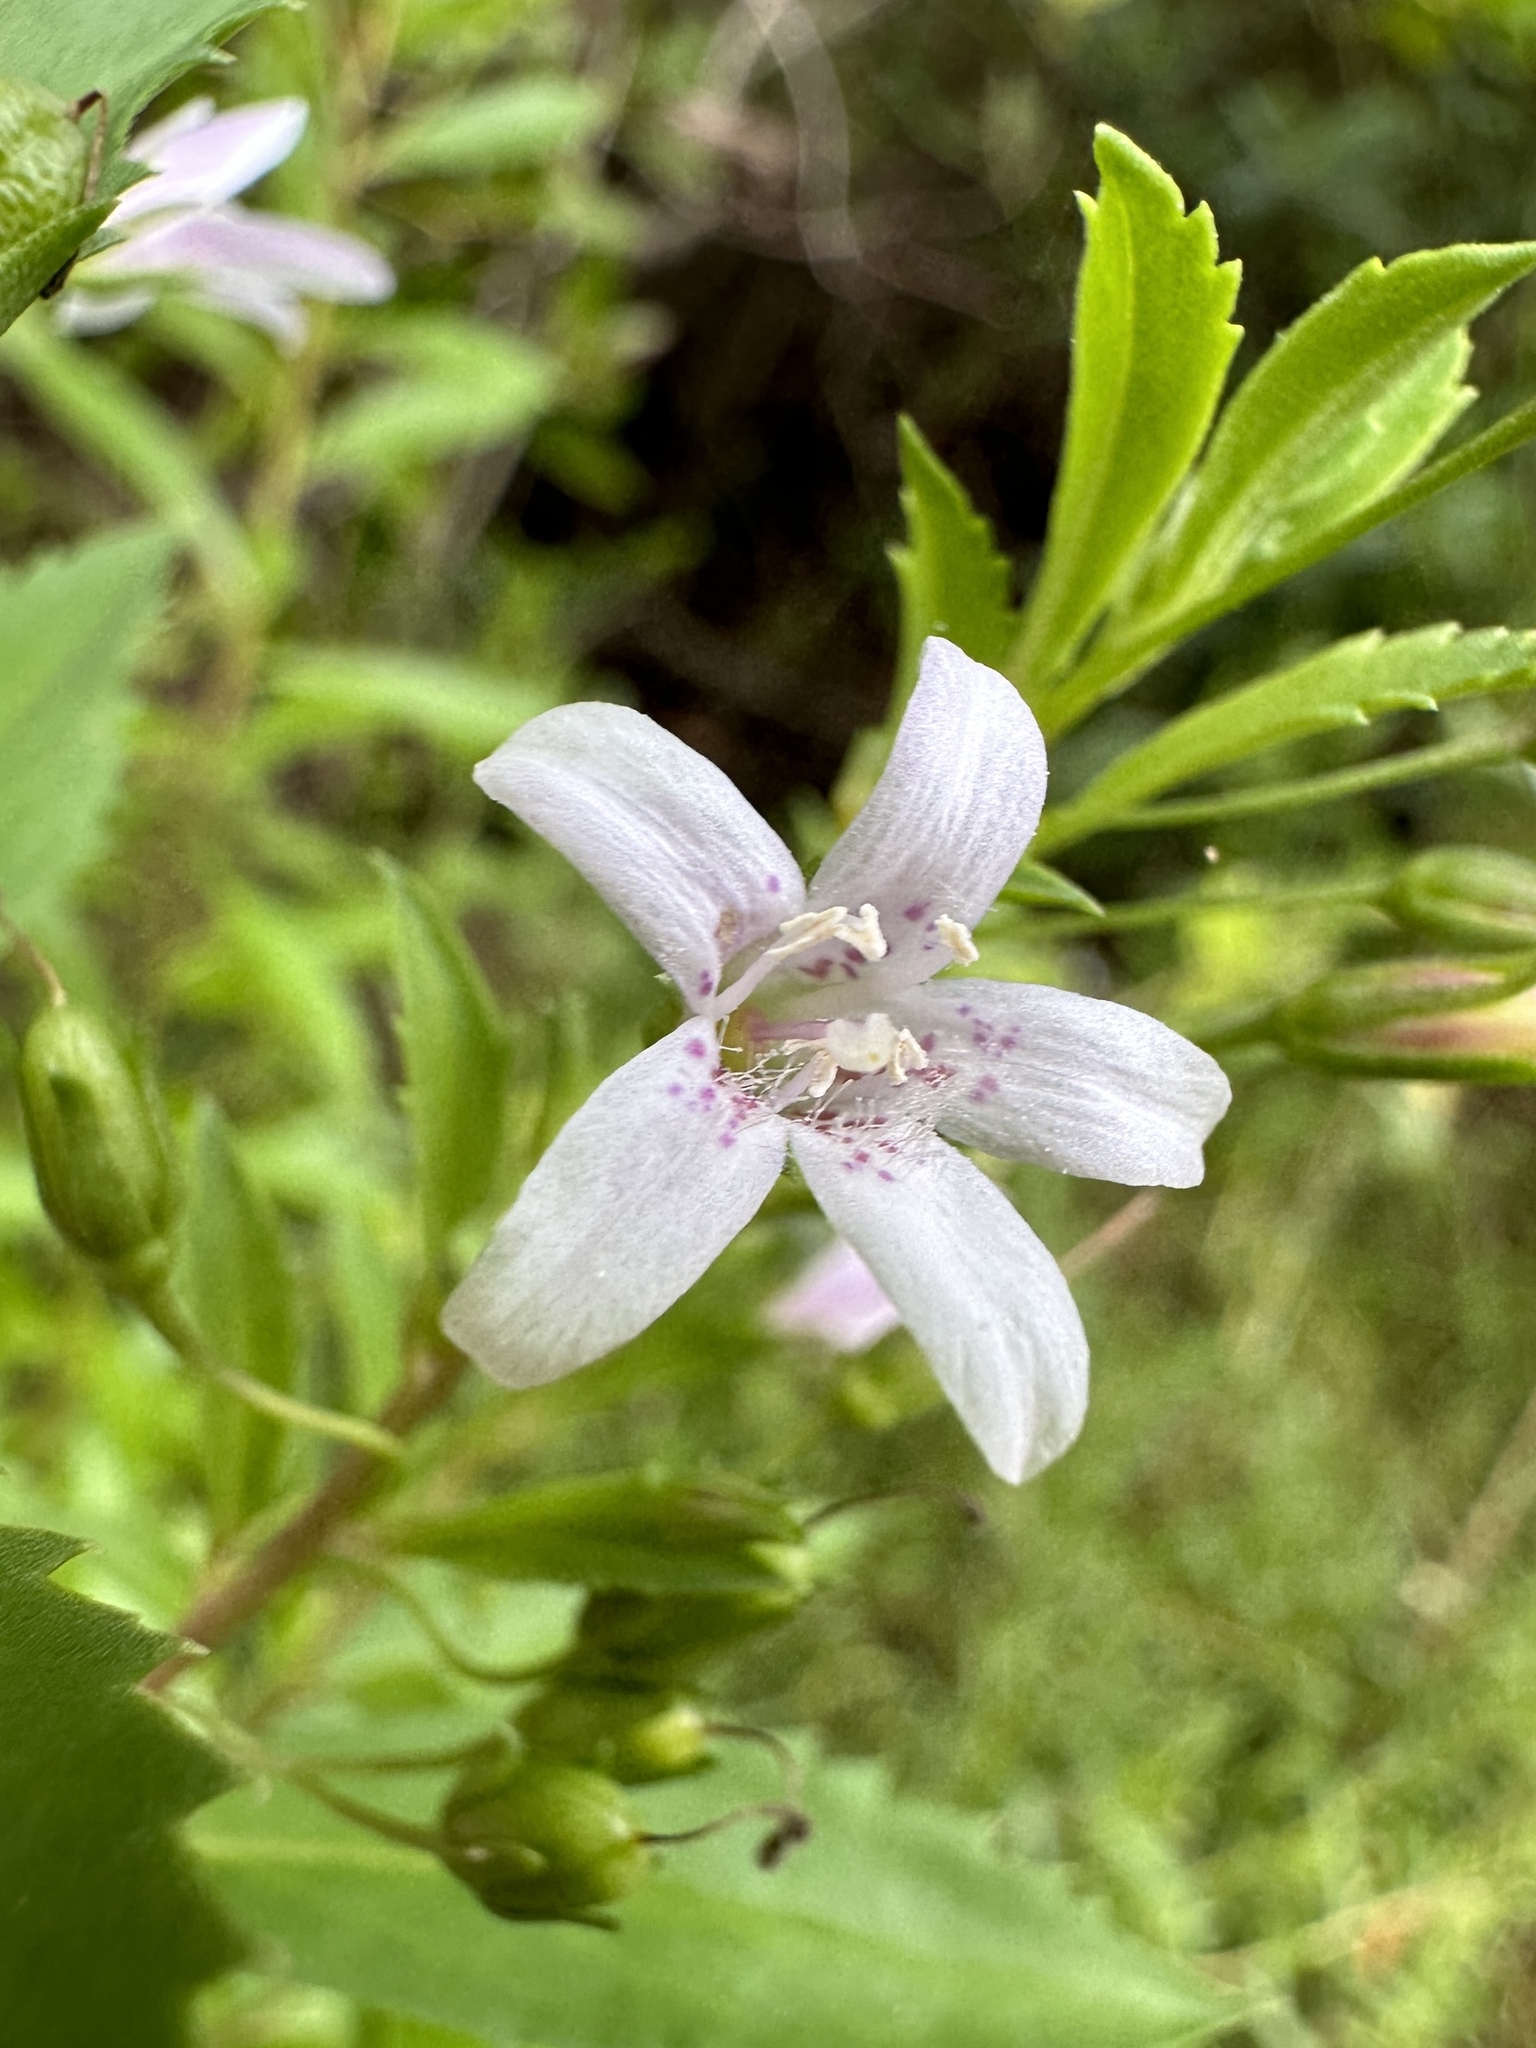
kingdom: Plantae
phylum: Tracheophyta
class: Magnoliopsida
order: Lamiales
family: Scrophulariaceae
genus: Capraria
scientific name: Capraria biflora
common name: Goatweed
